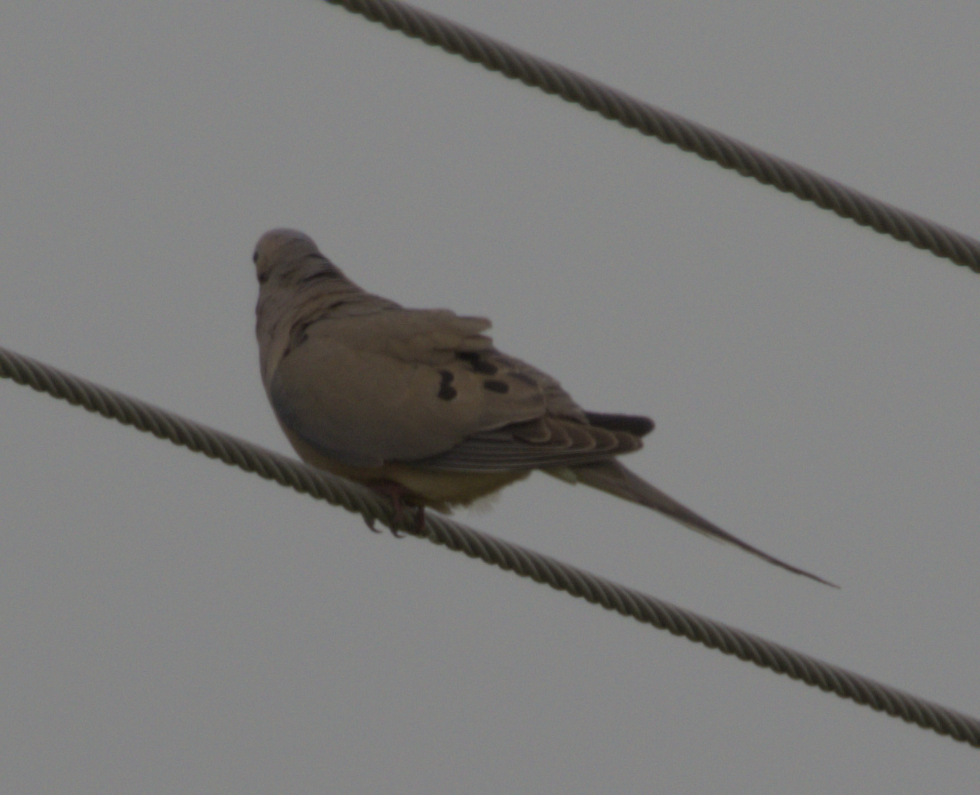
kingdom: Animalia
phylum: Chordata
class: Aves
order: Columbiformes
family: Columbidae
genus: Zenaida
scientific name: Zenaida macroura
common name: Mourning dove
